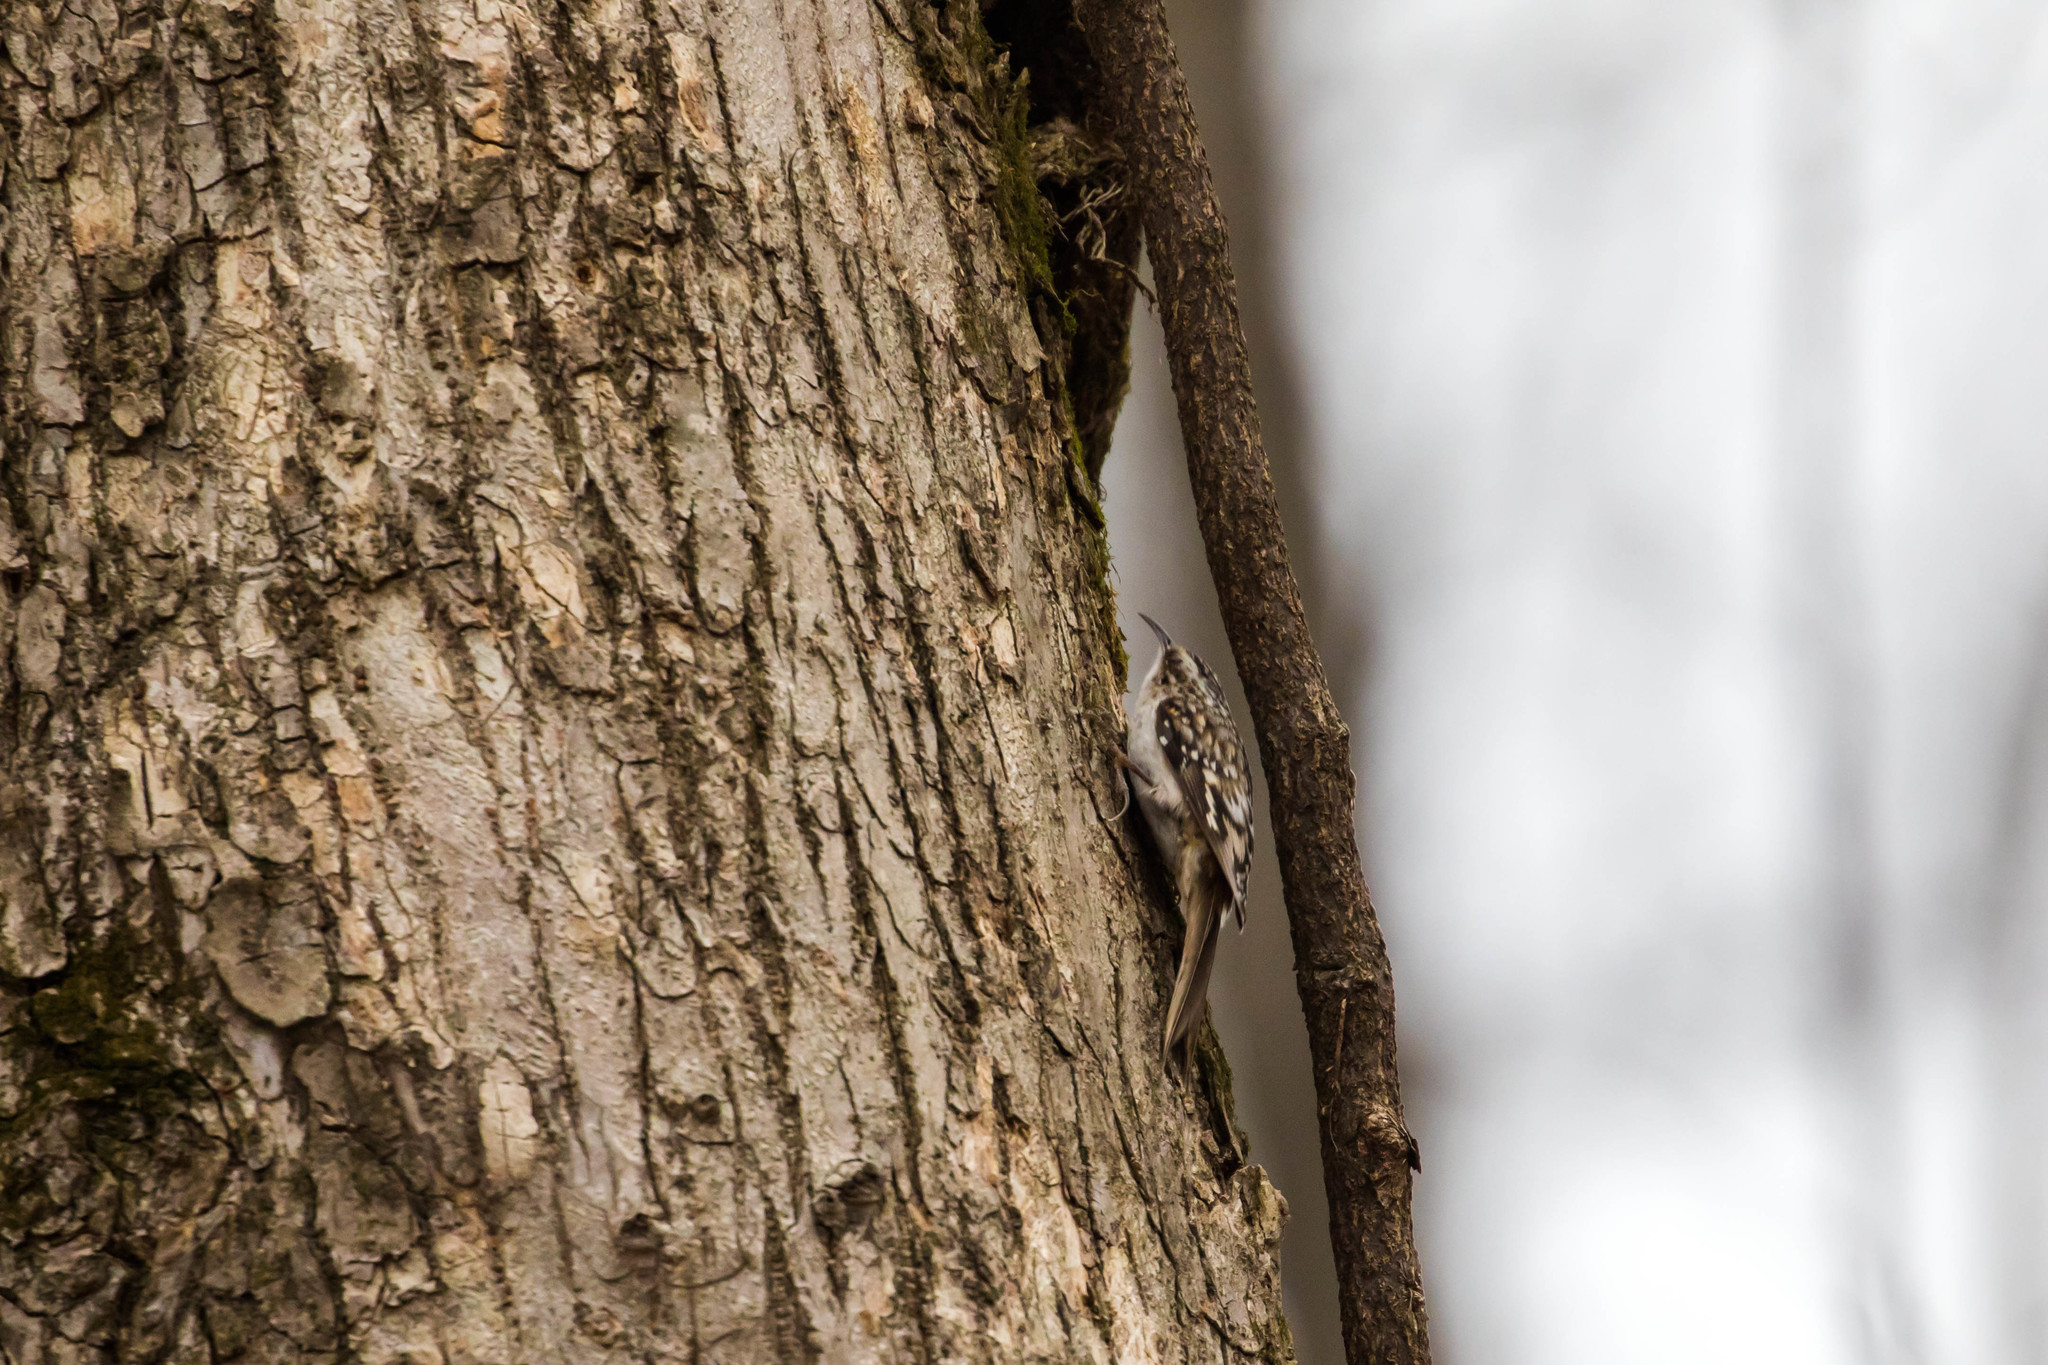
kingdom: Animalia
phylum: Chordata
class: Aves
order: Passeriformes
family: Certhiidae
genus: Certhia
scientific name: Certhia americana
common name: Brown creeper
